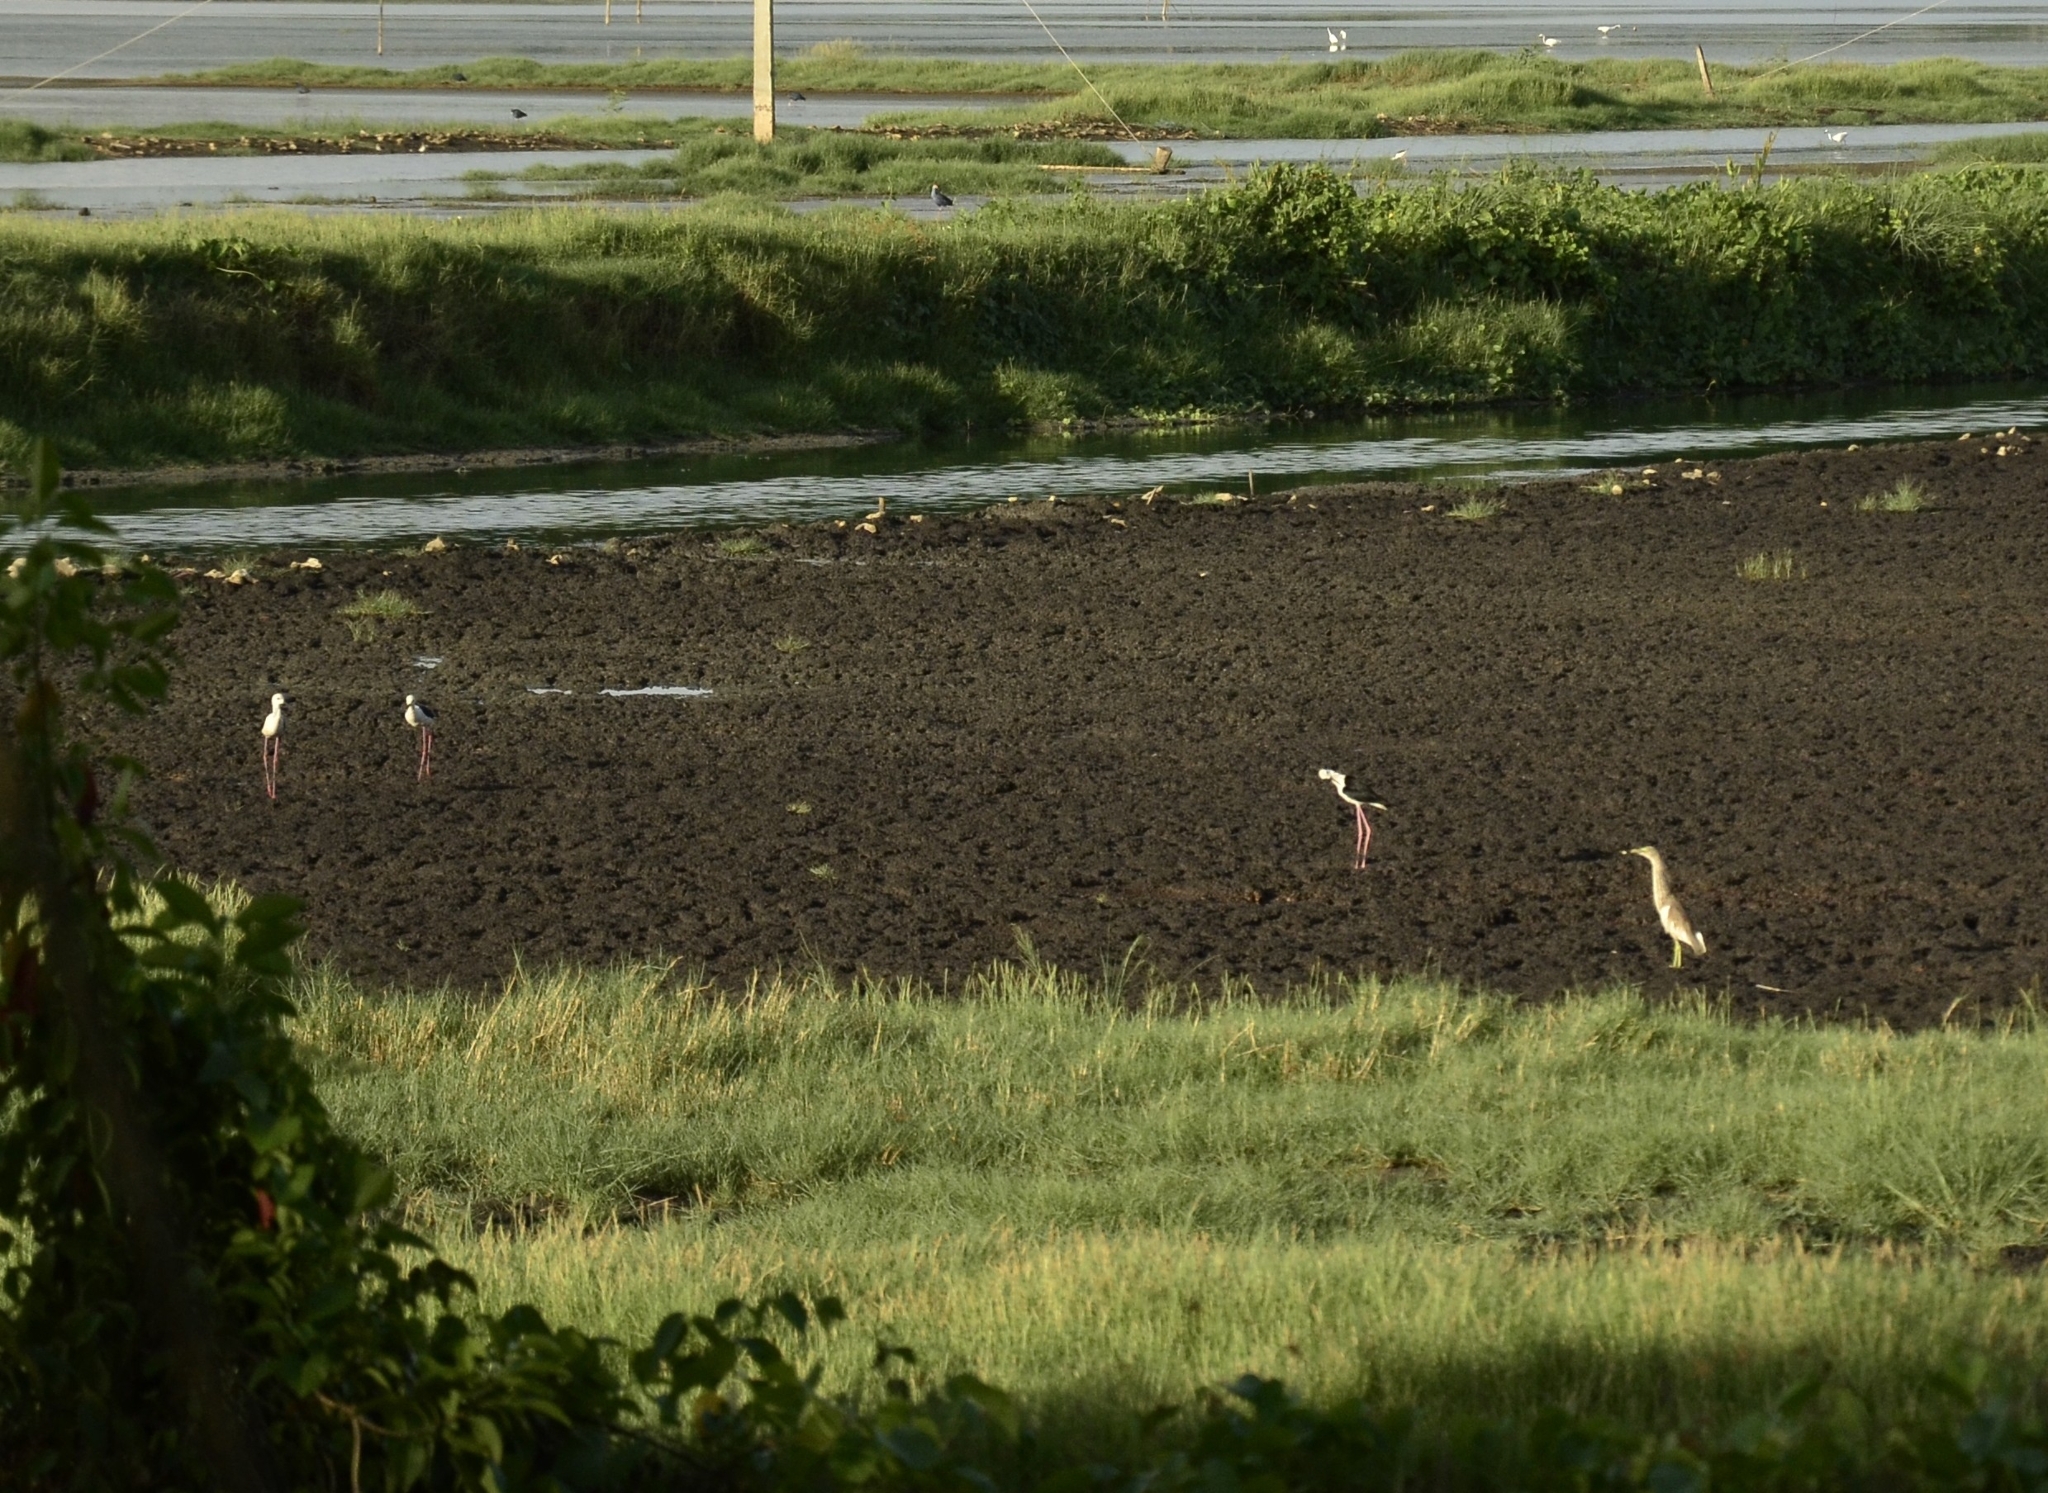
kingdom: Animalia
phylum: Chordata
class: Aves
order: Charadriiformes
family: Recurvirostridae
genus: Himantopus
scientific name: Himantopus himantopus
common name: Black-winged stilt
